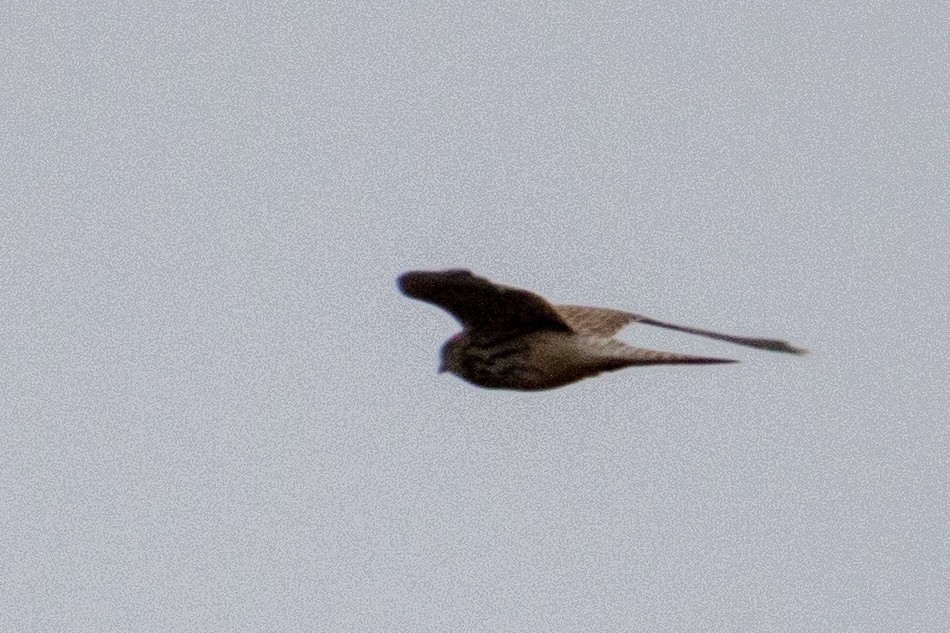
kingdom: Animalia
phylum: Chordata
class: Aves
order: Falconiformes
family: Falconidae
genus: Falco
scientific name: Falco tinnunculus
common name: Common kestrel
